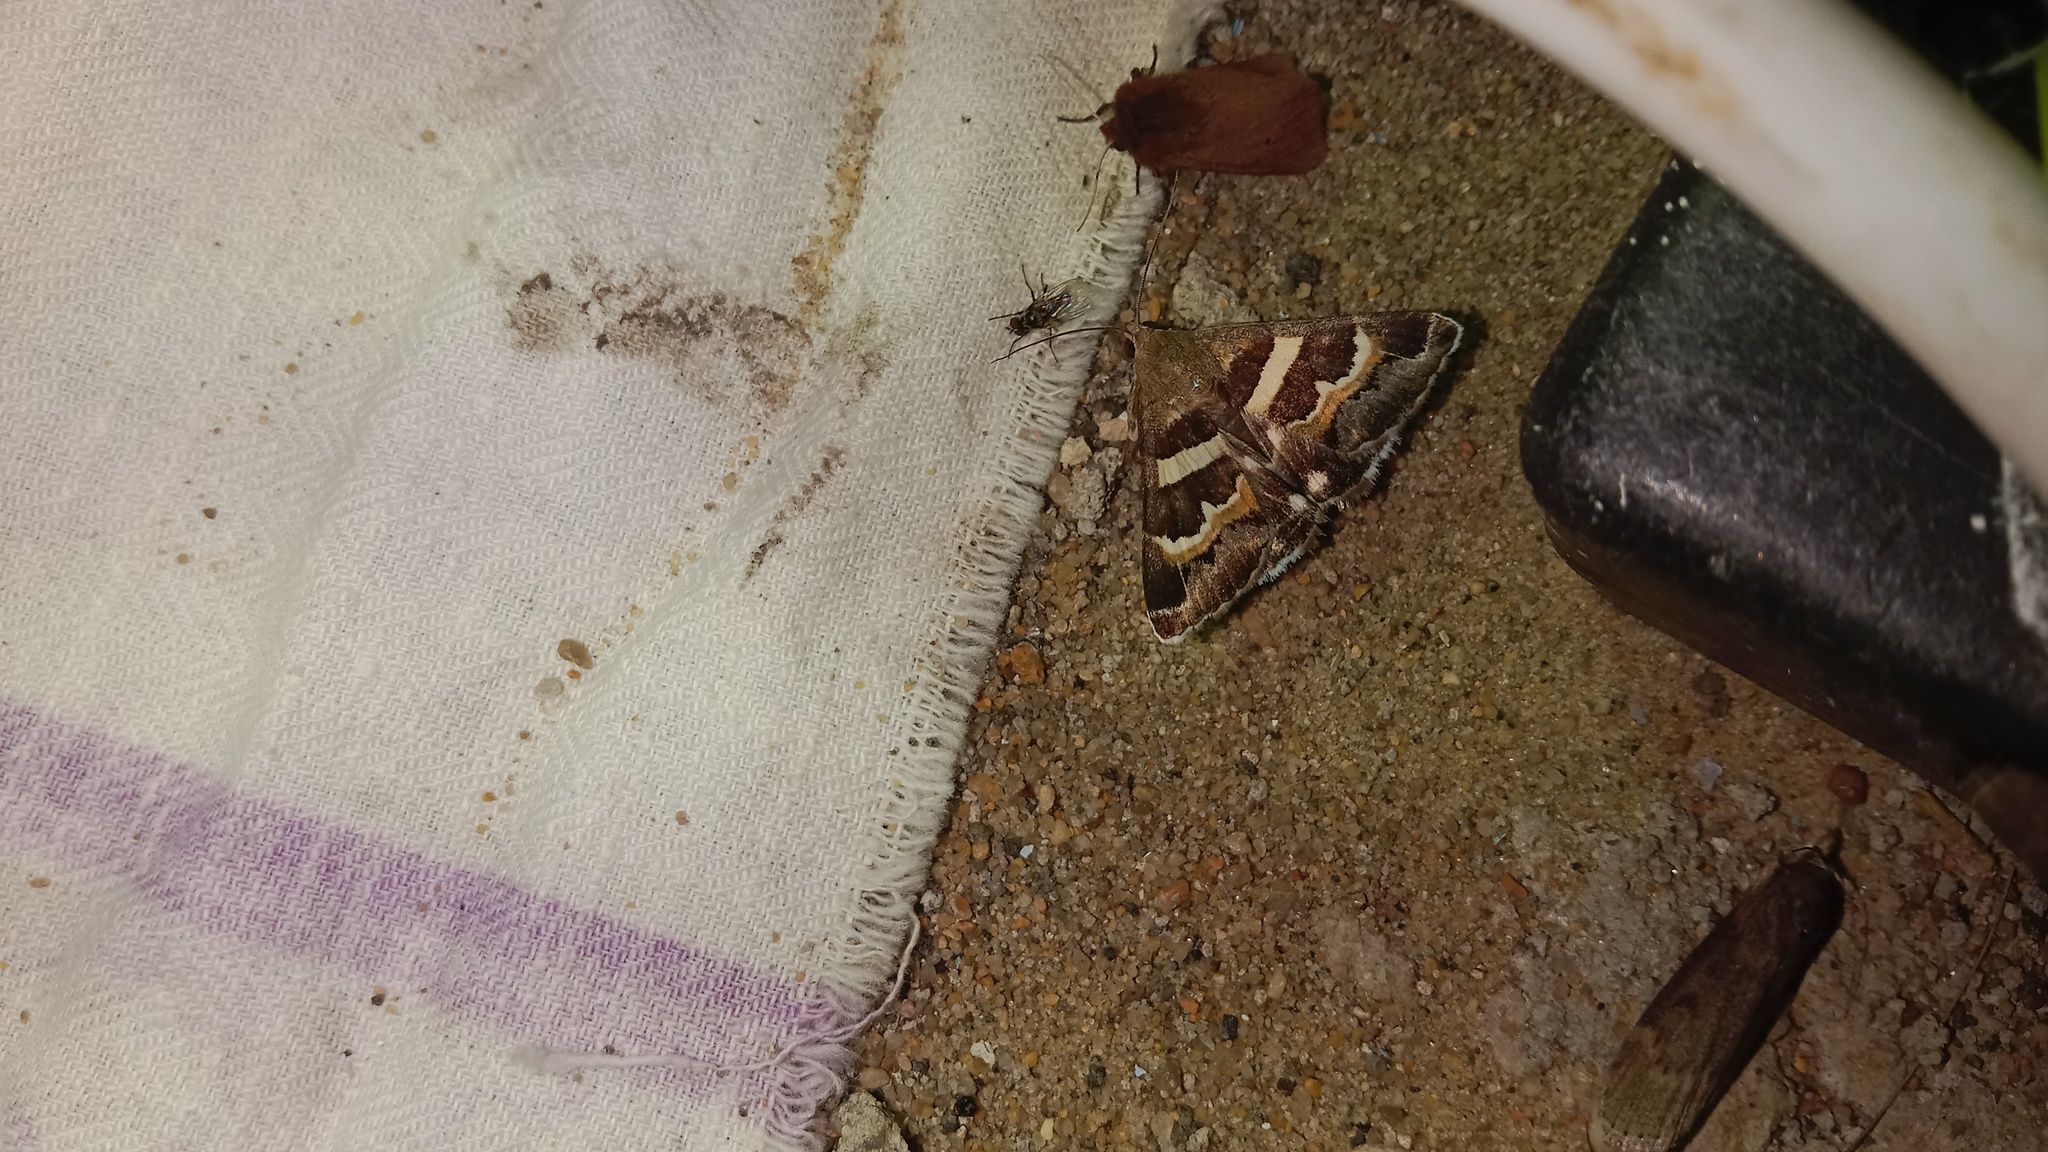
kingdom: Animalia
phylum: Arthropoda
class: Insecta
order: Lepidoptera
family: Erebidae
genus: Grammodes
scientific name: Grammodes stolida
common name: Geometrician
